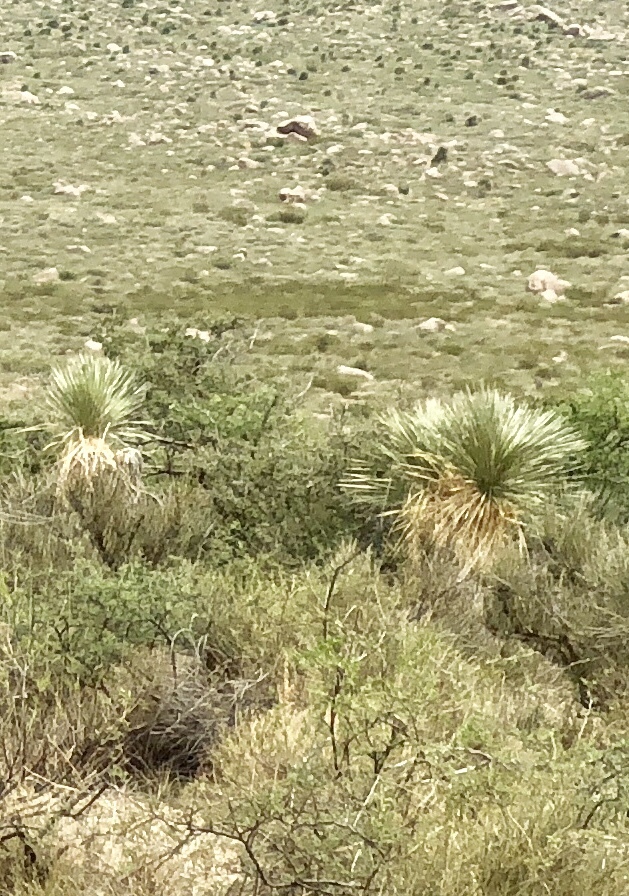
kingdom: Plantae
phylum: Tracheophyta
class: Liliopsida
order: Asparagales
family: Asparagaceae
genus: Yucca
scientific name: Yucca elata
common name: Palmella
